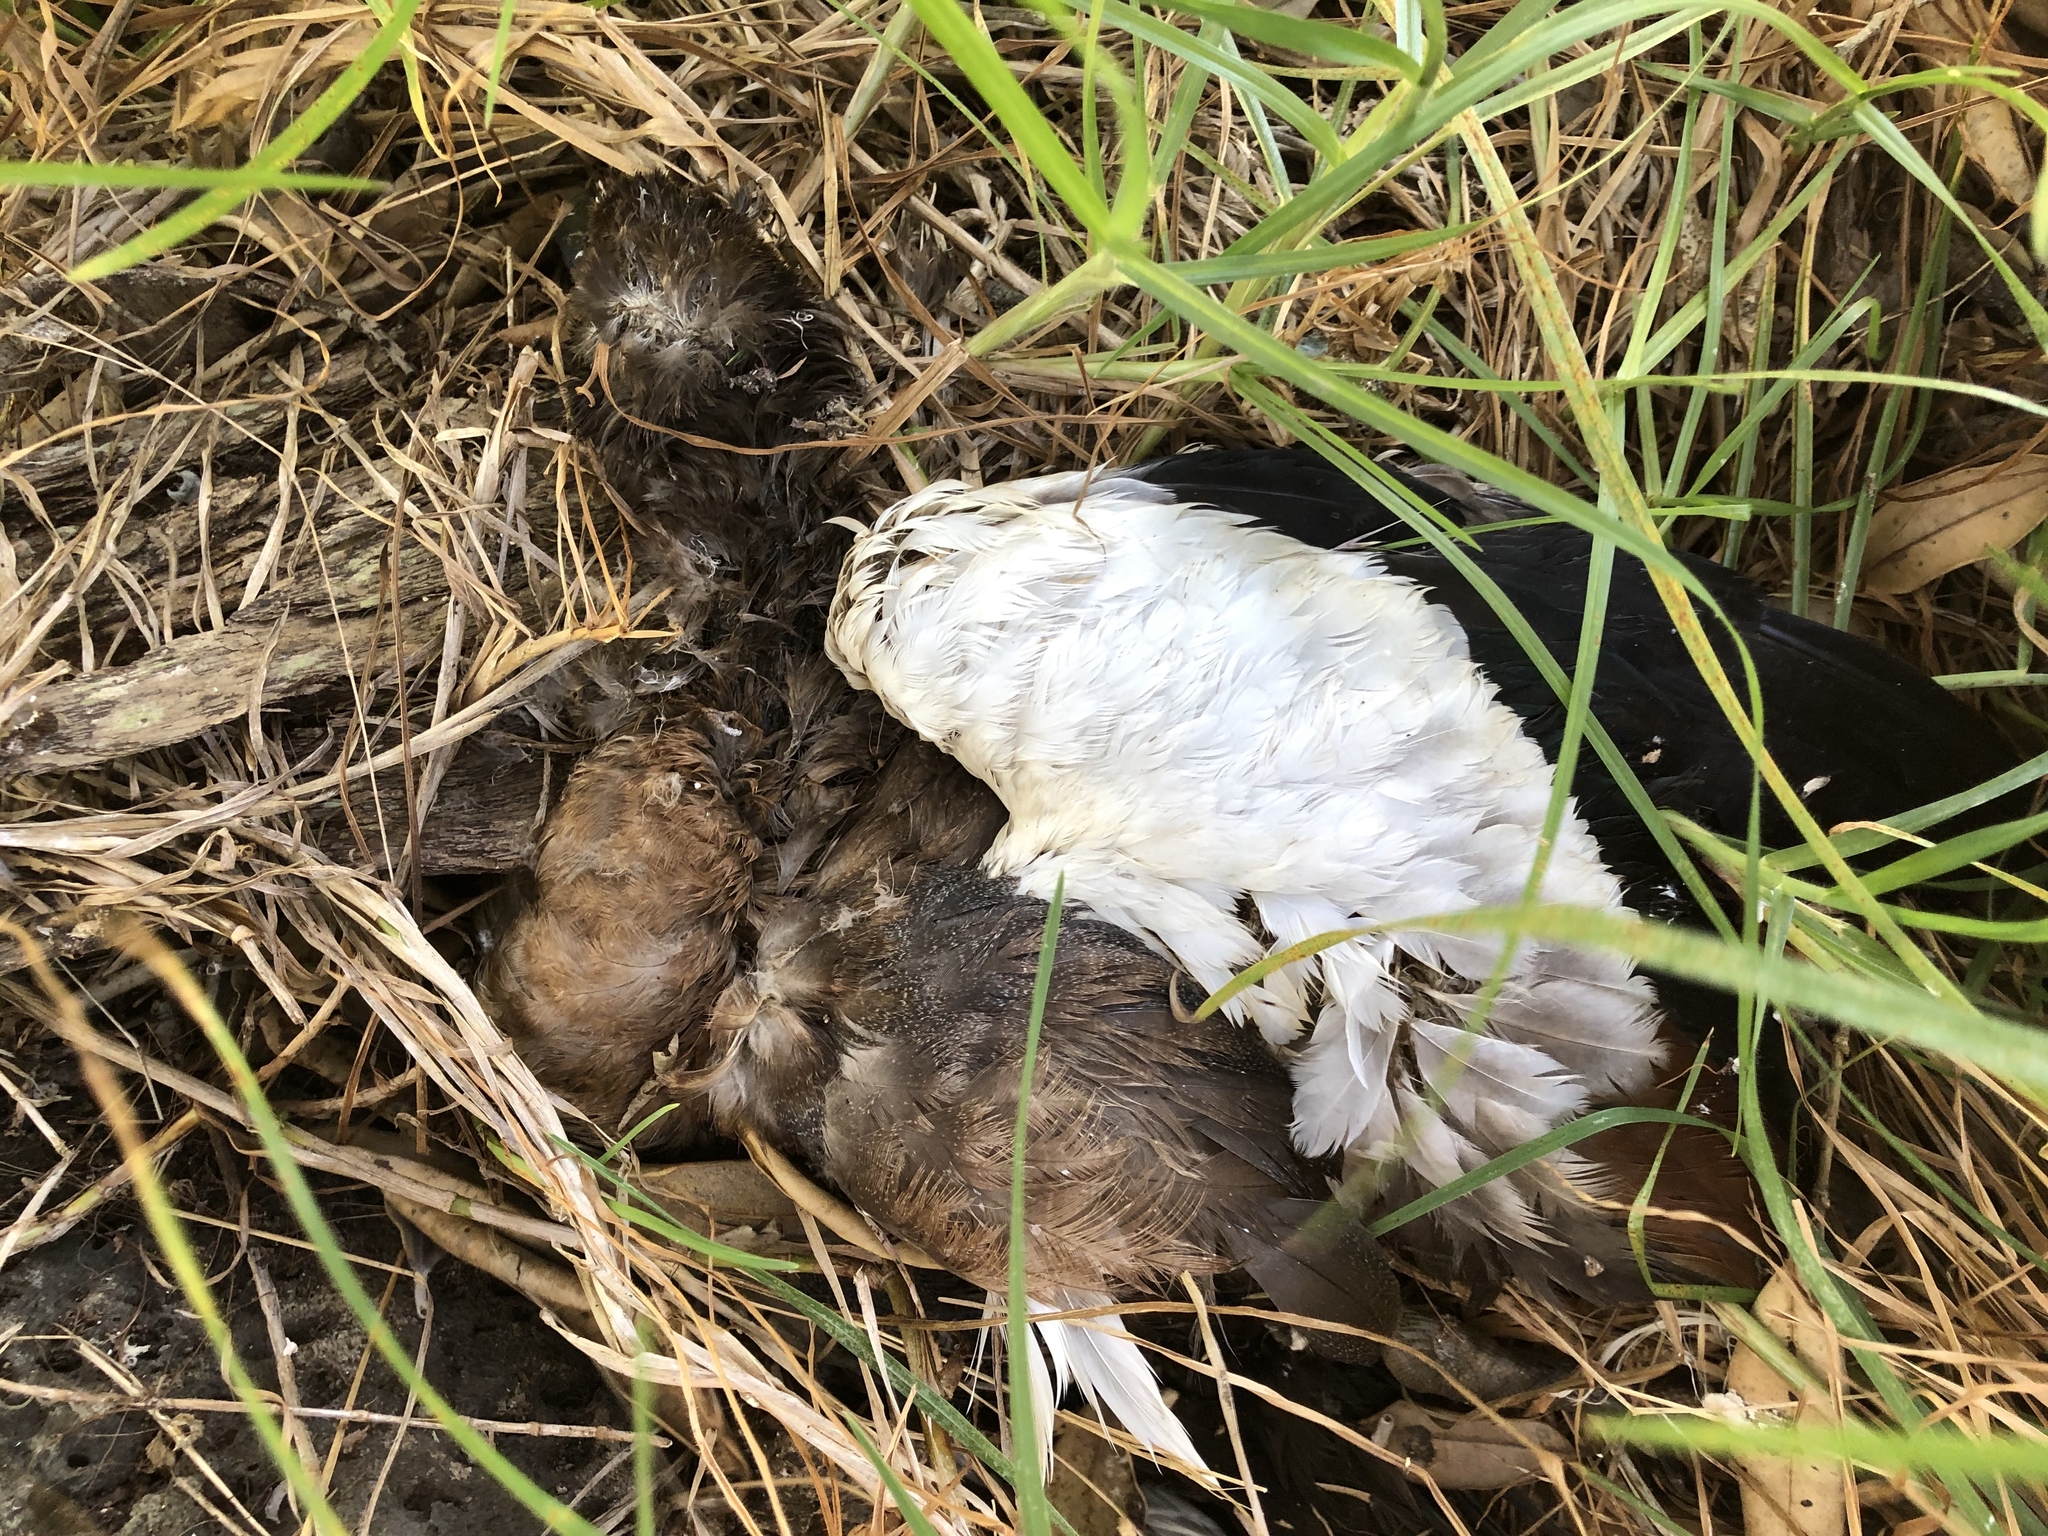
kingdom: Animalia
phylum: Chordata
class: Aves
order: Anseriformes
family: Anatidae
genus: Tadorna
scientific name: Tadorna variegata
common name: Paradise shelduck
